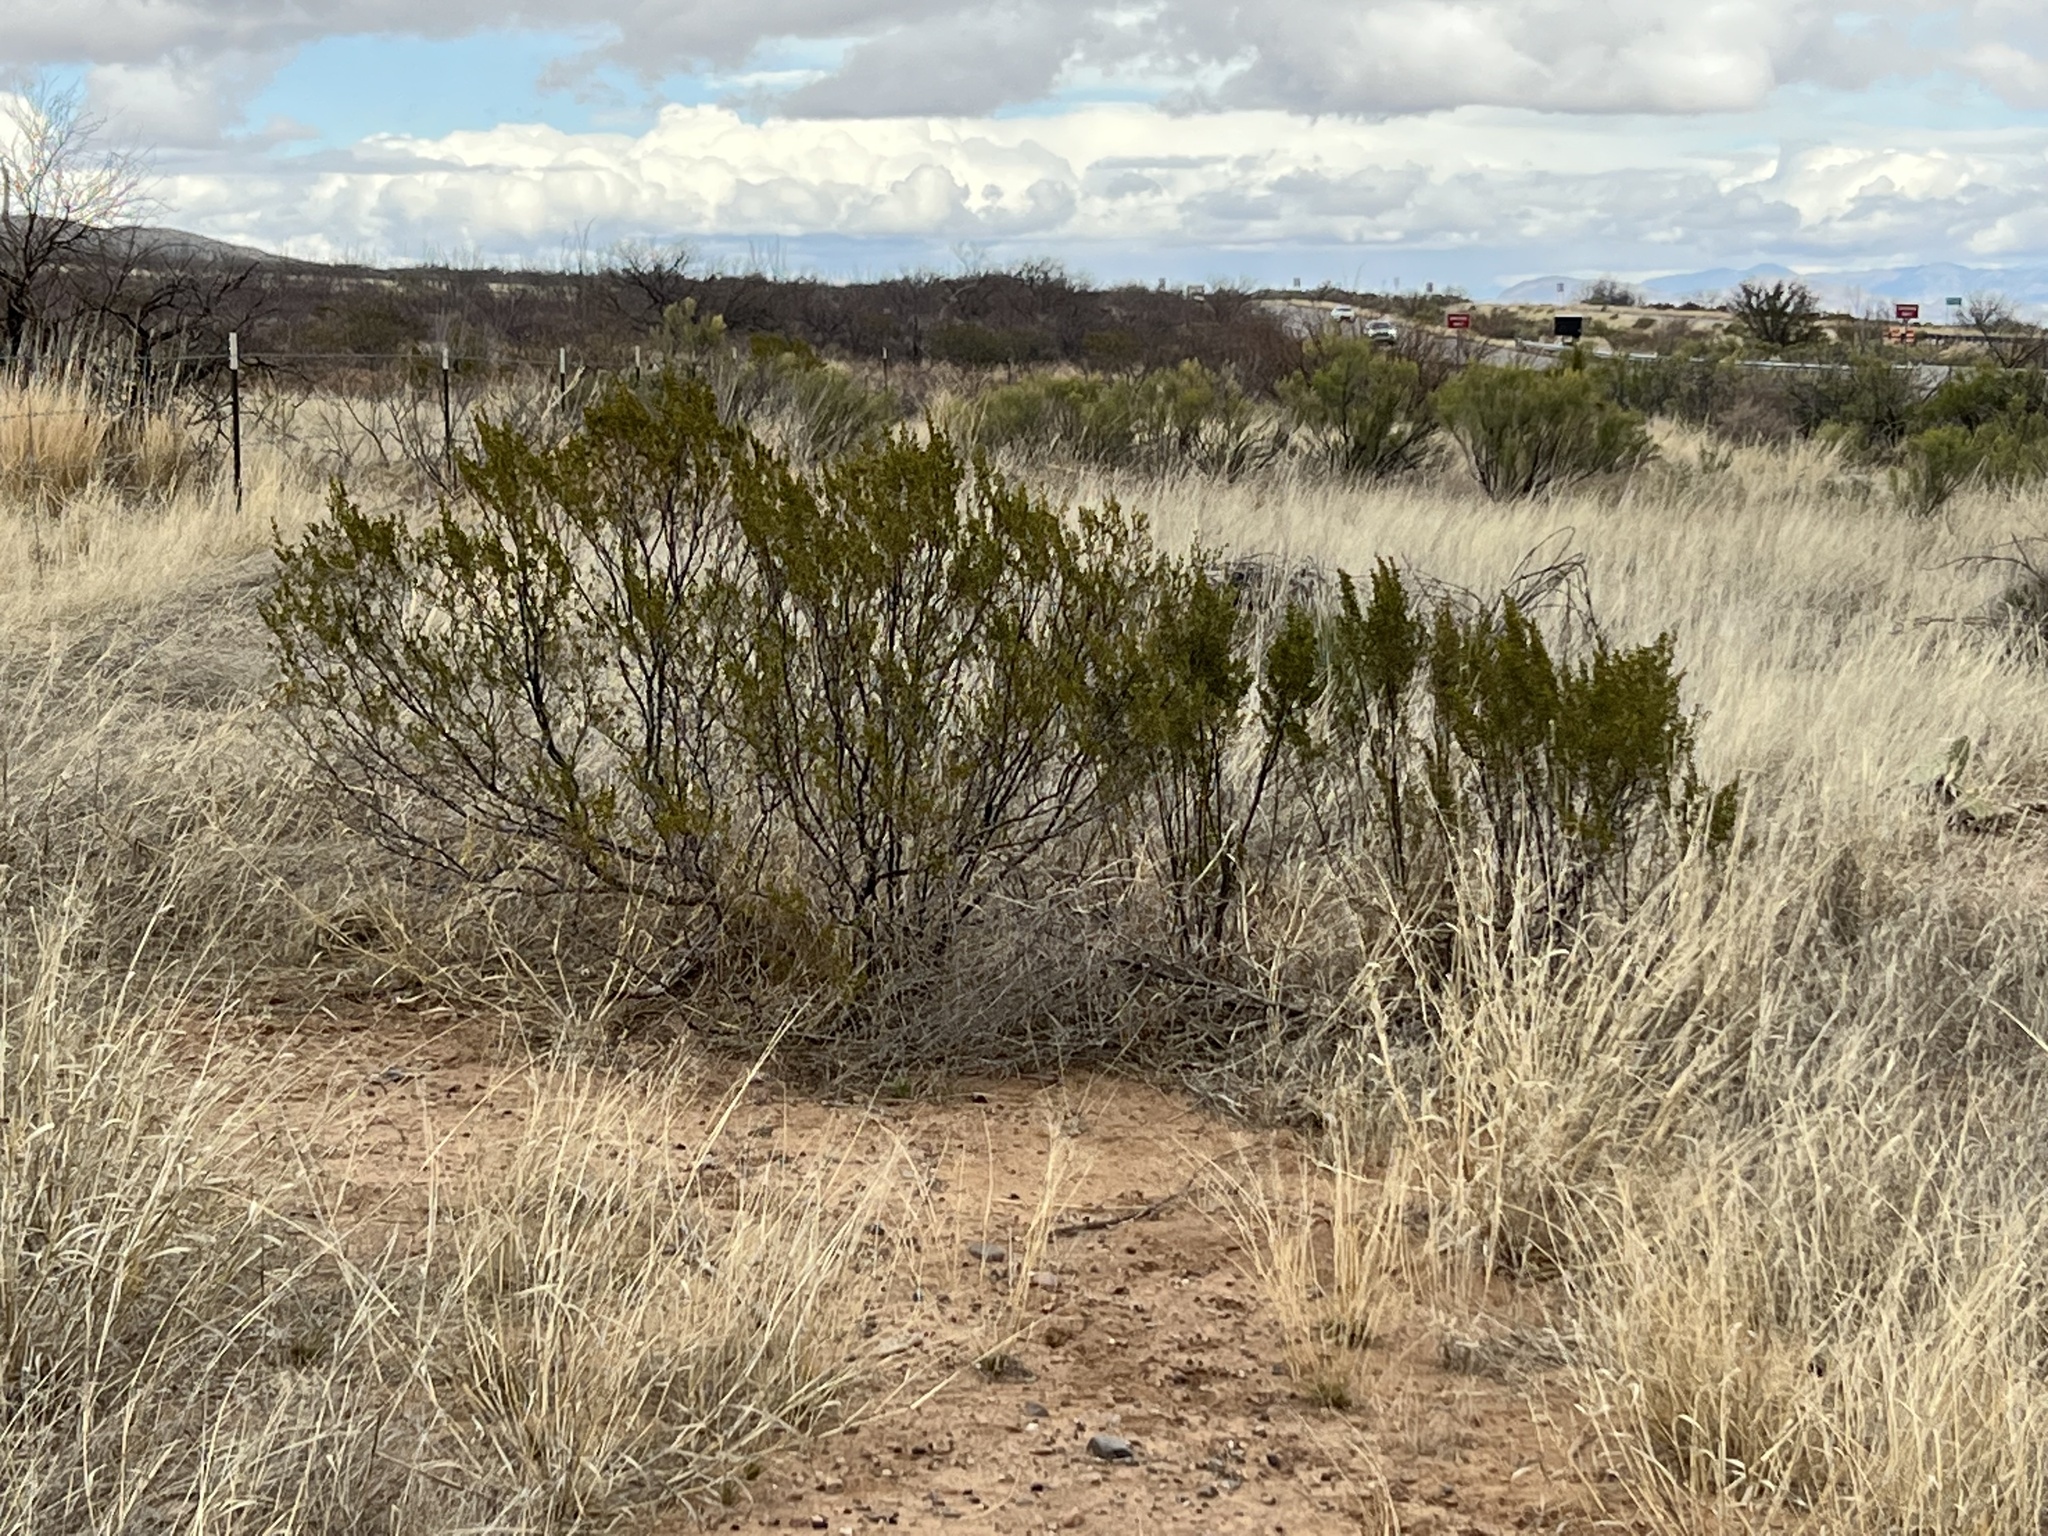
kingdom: Plantae
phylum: Tracheophyta
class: Magnoliopsida
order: Zygophyllales
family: Zygophyllaceae
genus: Larrea
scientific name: Larrea tridentata
